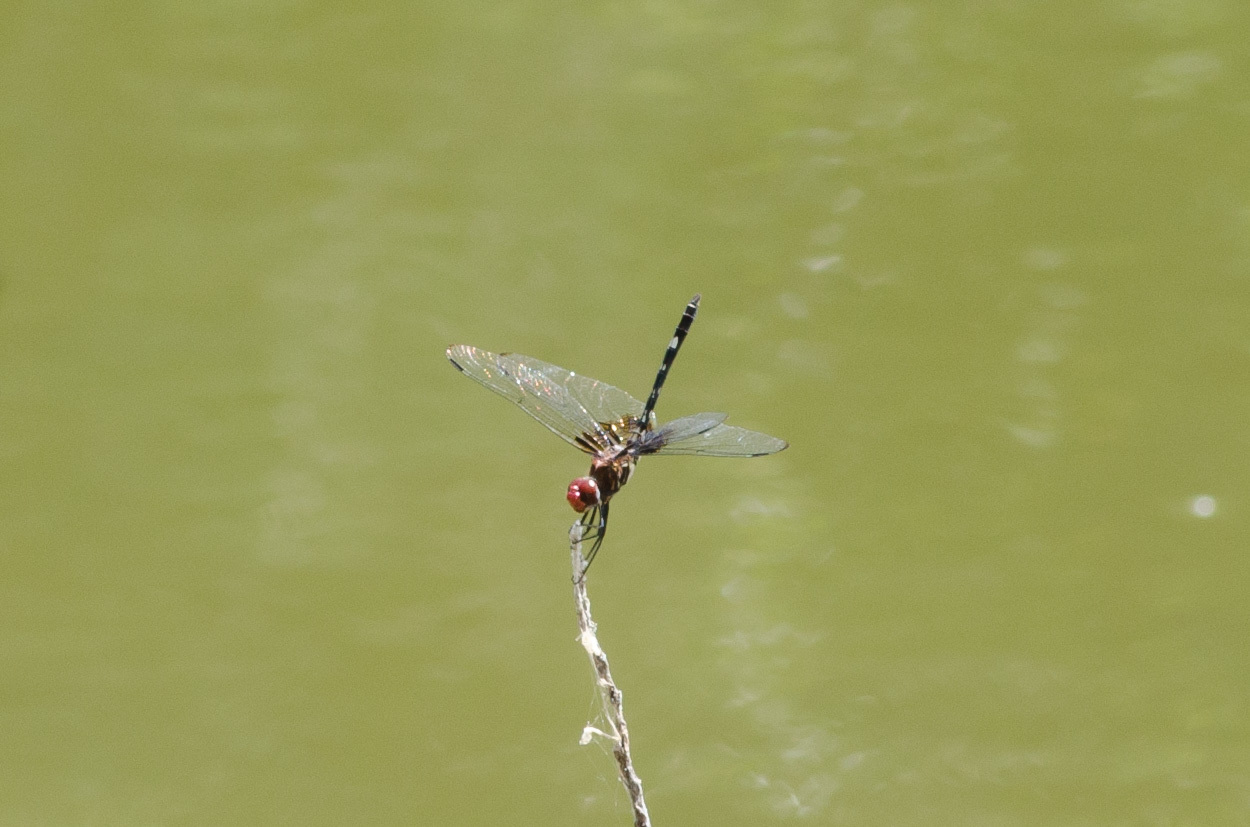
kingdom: Animalia
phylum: Arthropoda
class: Insecta
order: Odonata
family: Libellulidae
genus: Dythemis
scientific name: Dythemis fugax
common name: Checkered setwing
